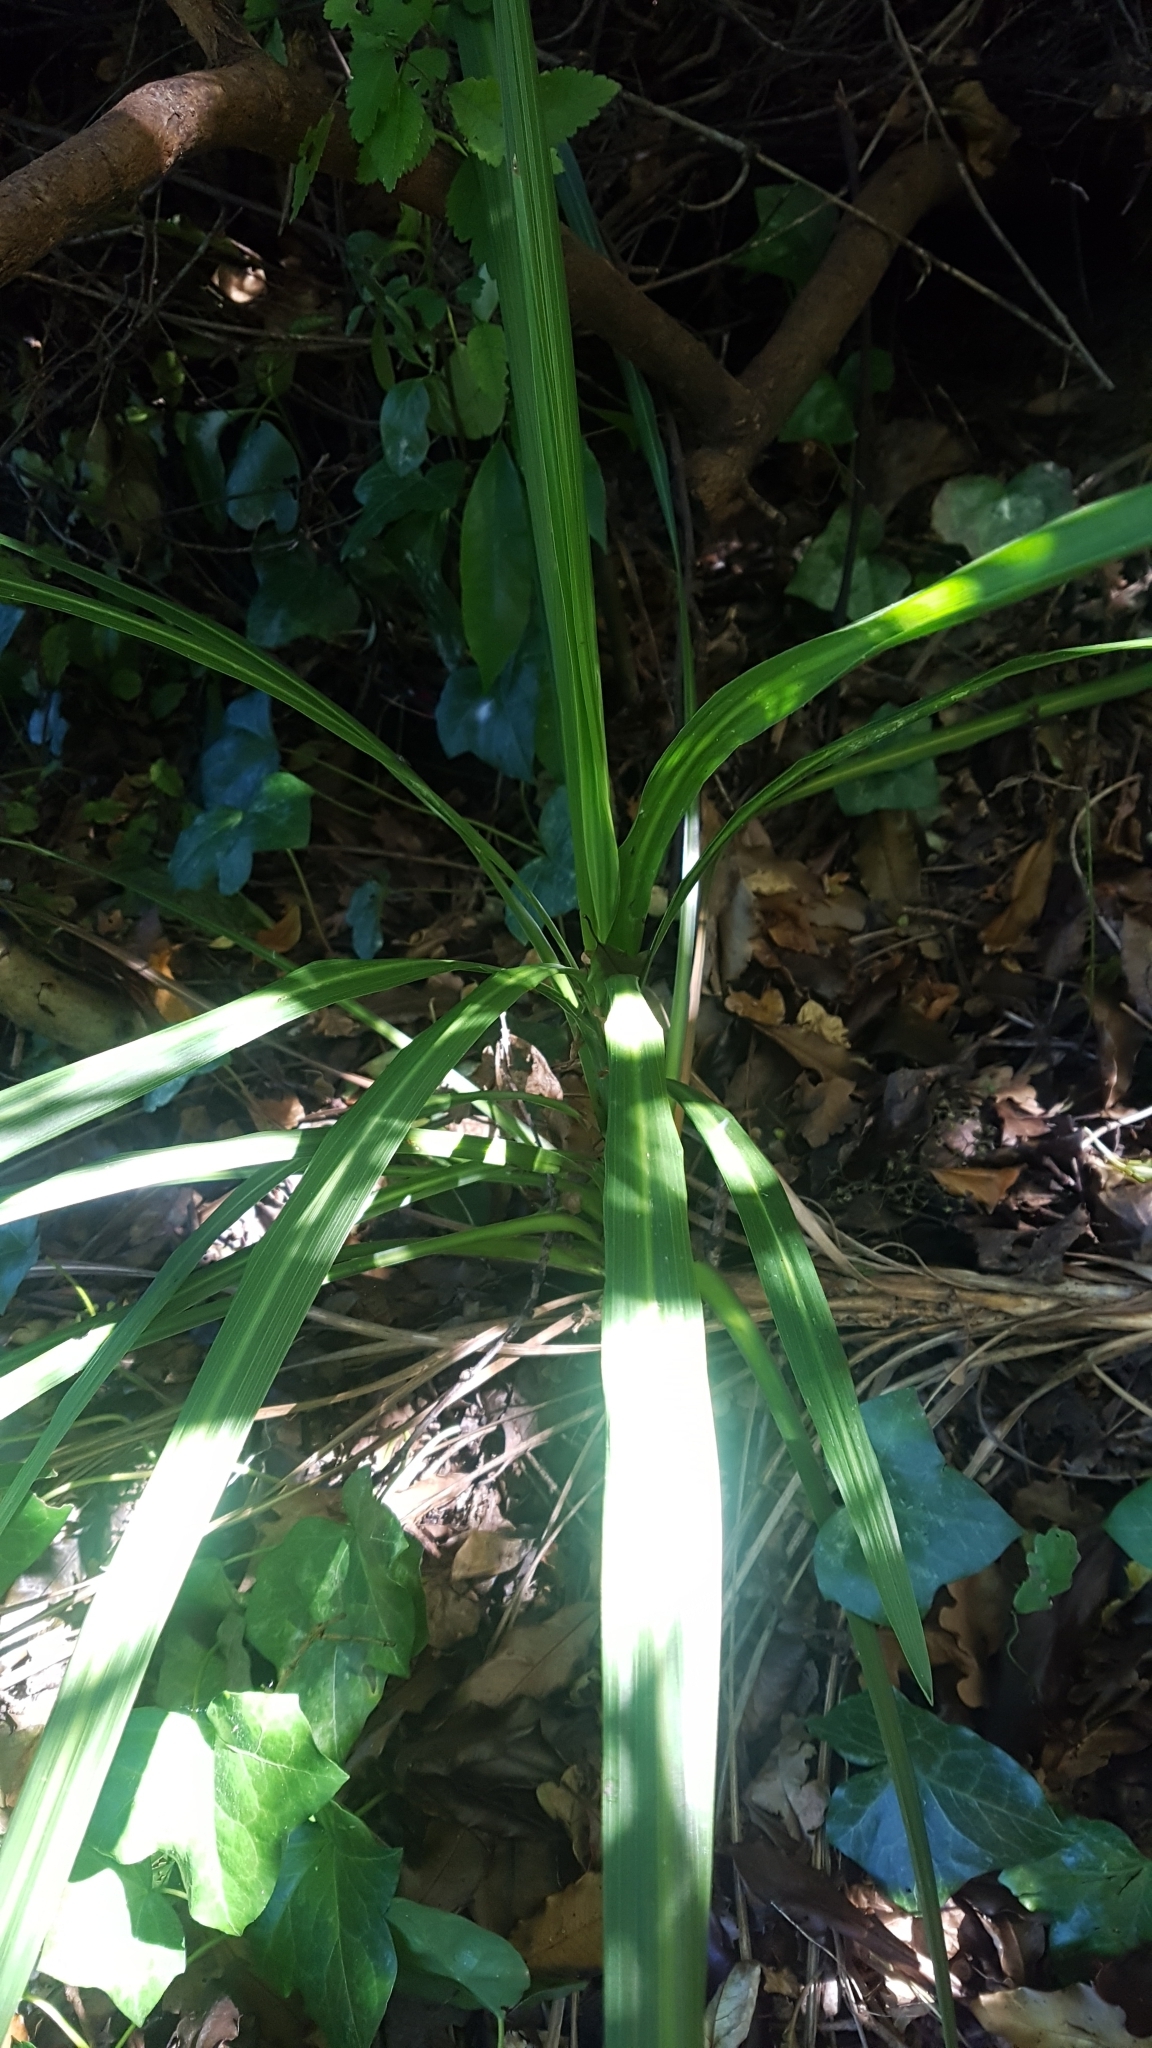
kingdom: Plantae
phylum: Tracheophyta
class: Liliopsida
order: Asparagales
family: Asparagaceae
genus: Cordyline
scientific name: Cordyline australis
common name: Cabbage-palm
